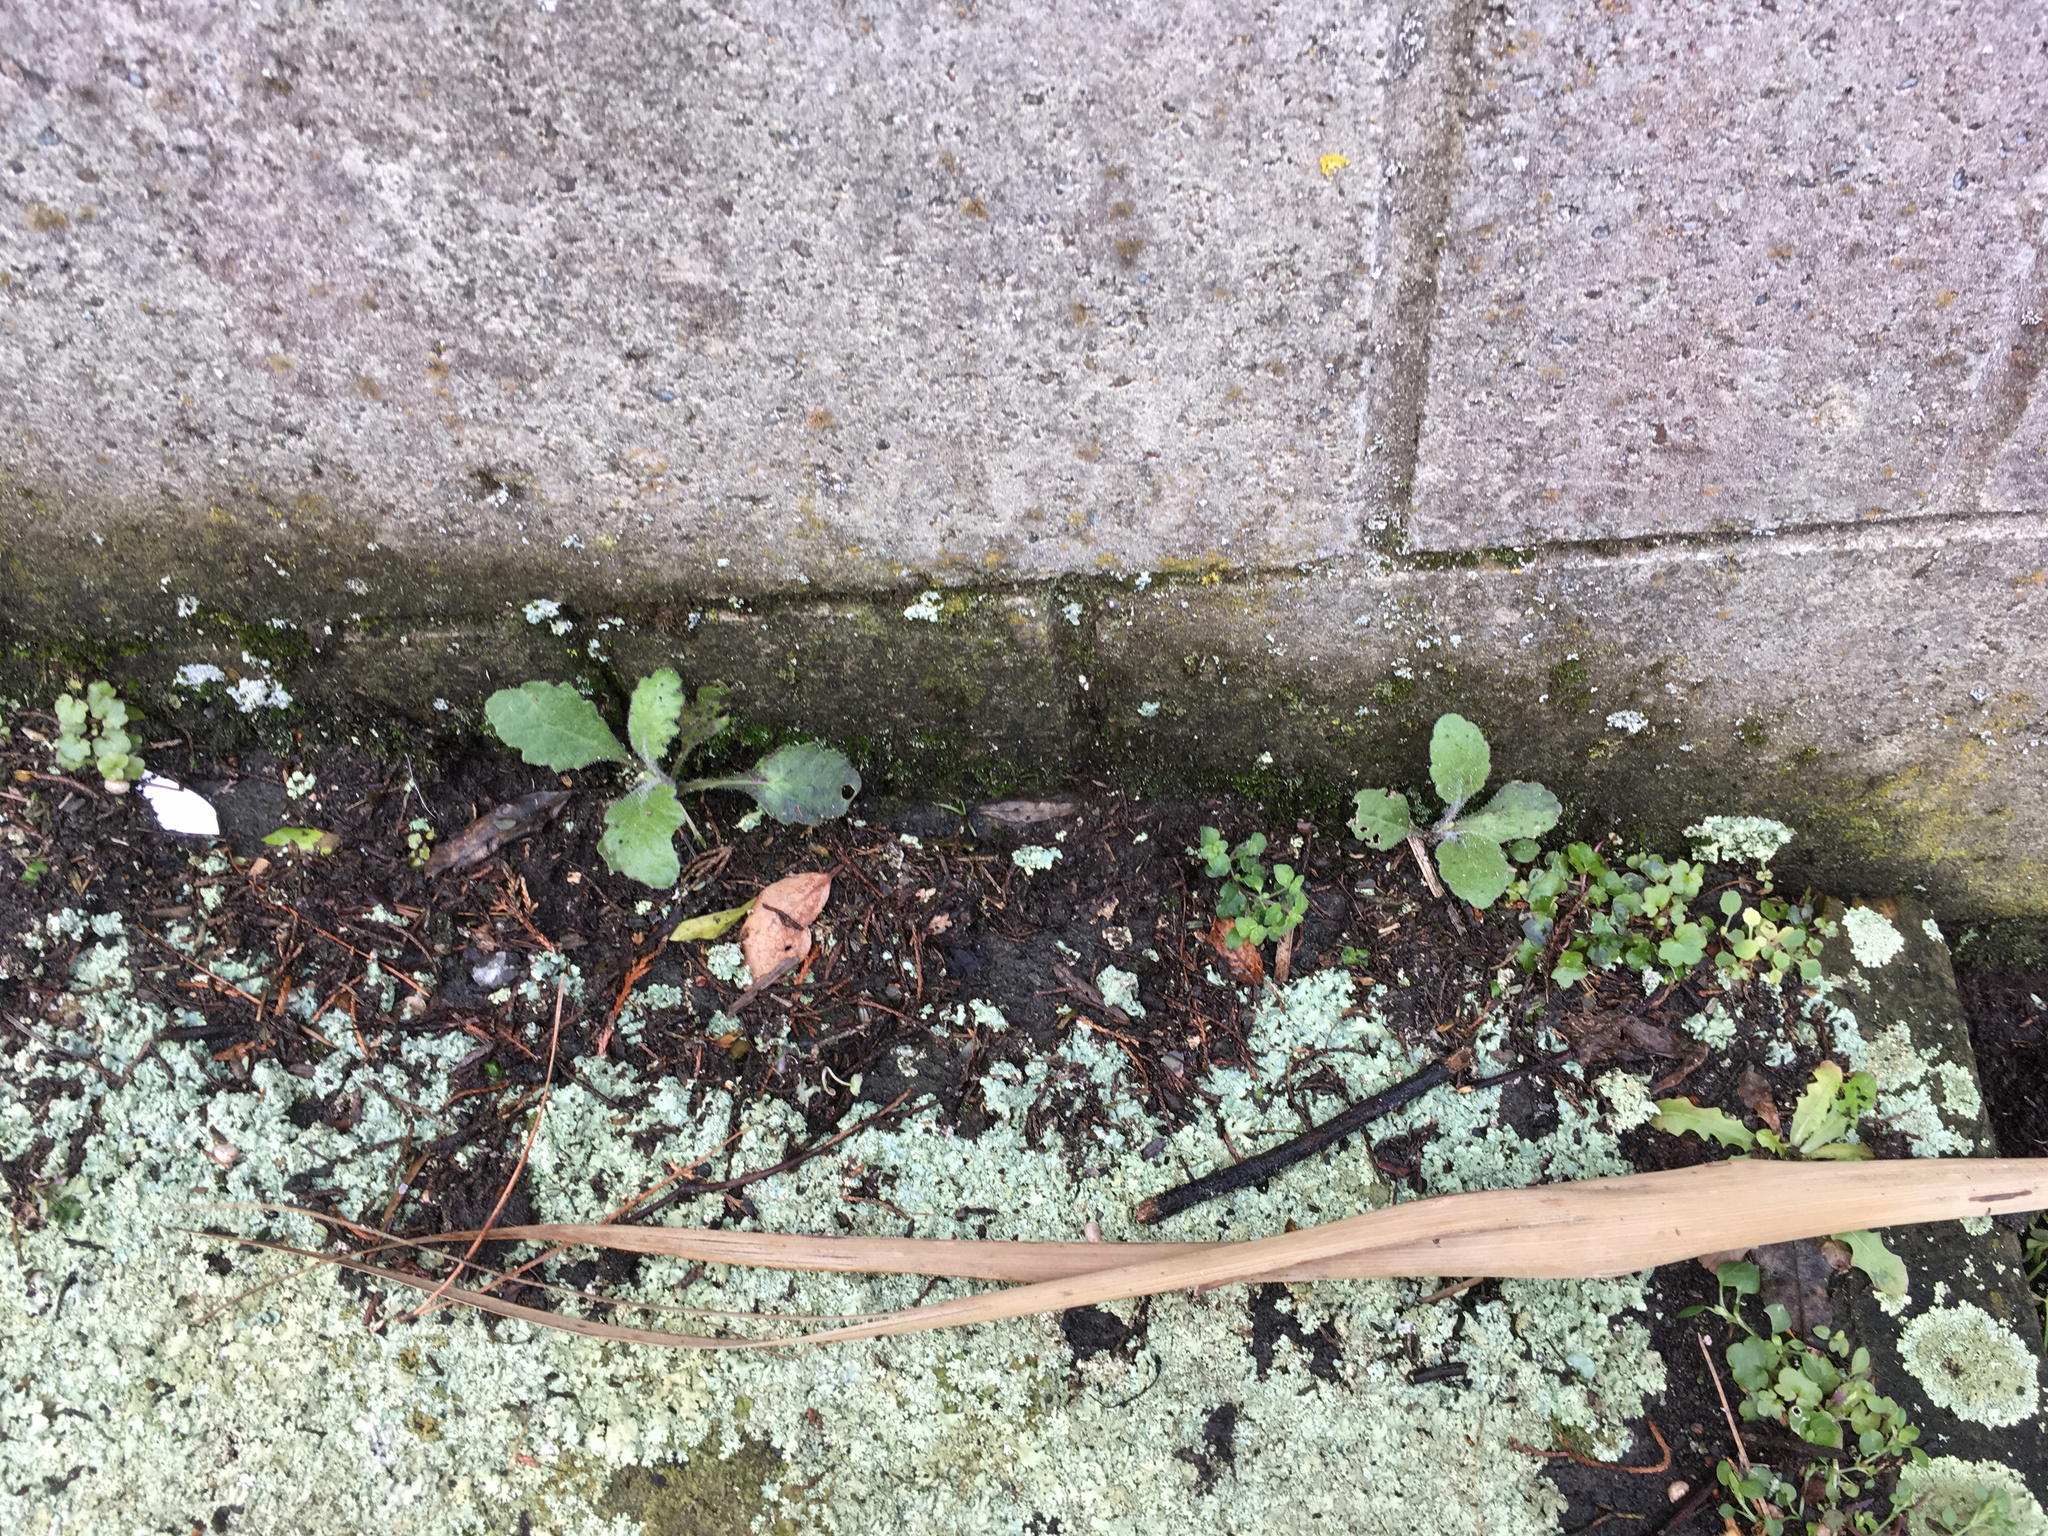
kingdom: Plantae
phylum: Tracheophyta
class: Magnoliopsida
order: Asterales
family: Asteraceae
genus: Senecio
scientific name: Senecio glomeratus
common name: Cutleaf burnweed
